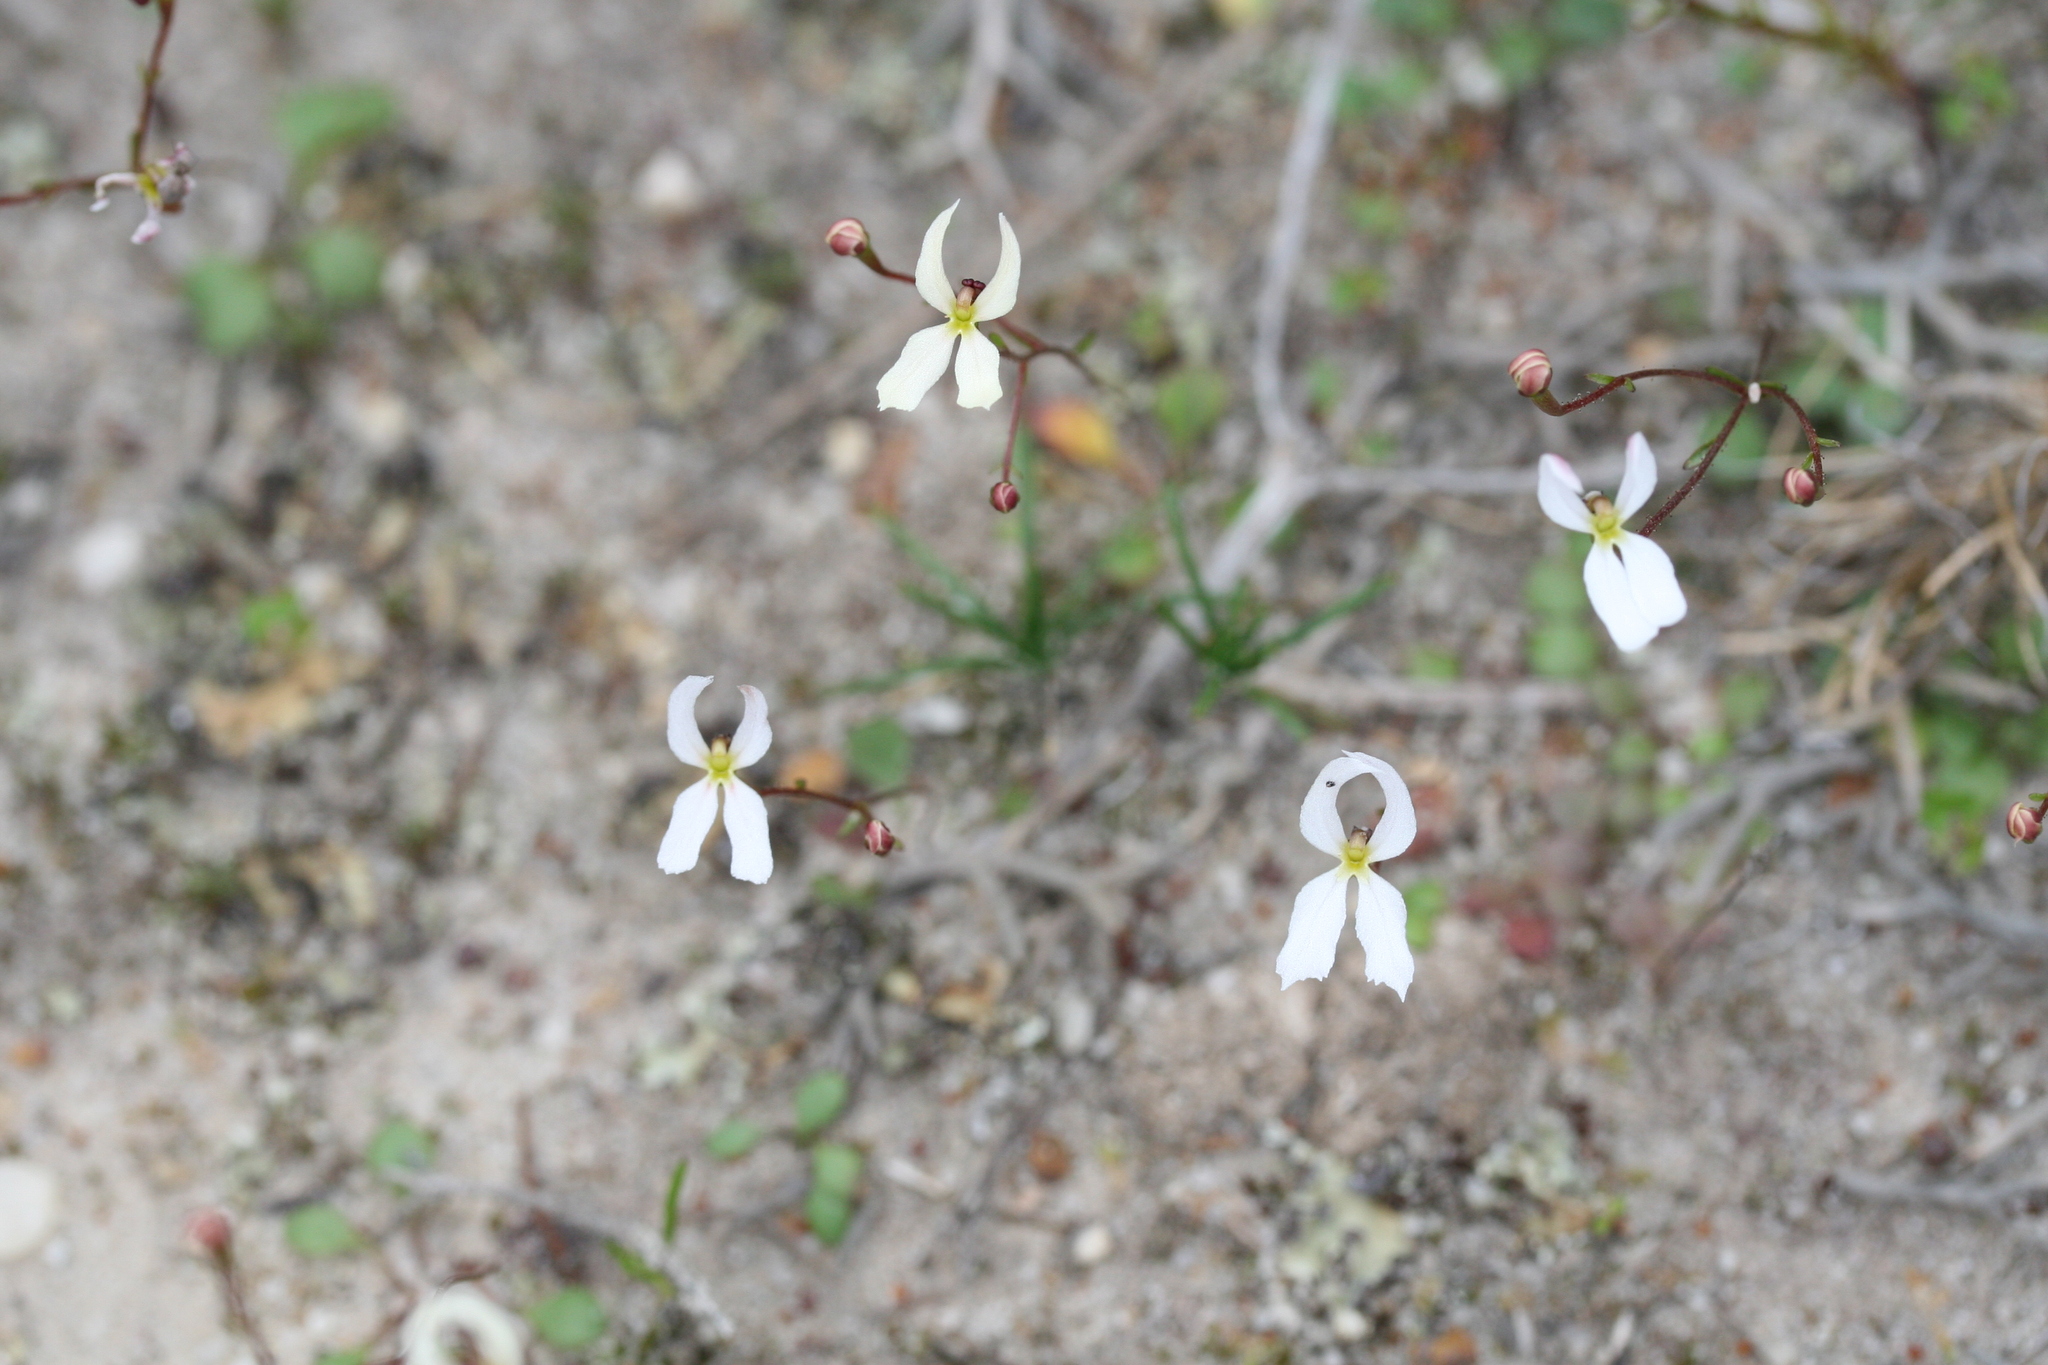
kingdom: Plantae
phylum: Tracheophyta
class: Magnoliopsida
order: Asterales
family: Stylidiaceae
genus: Stylidium
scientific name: Stylidium decipiens
